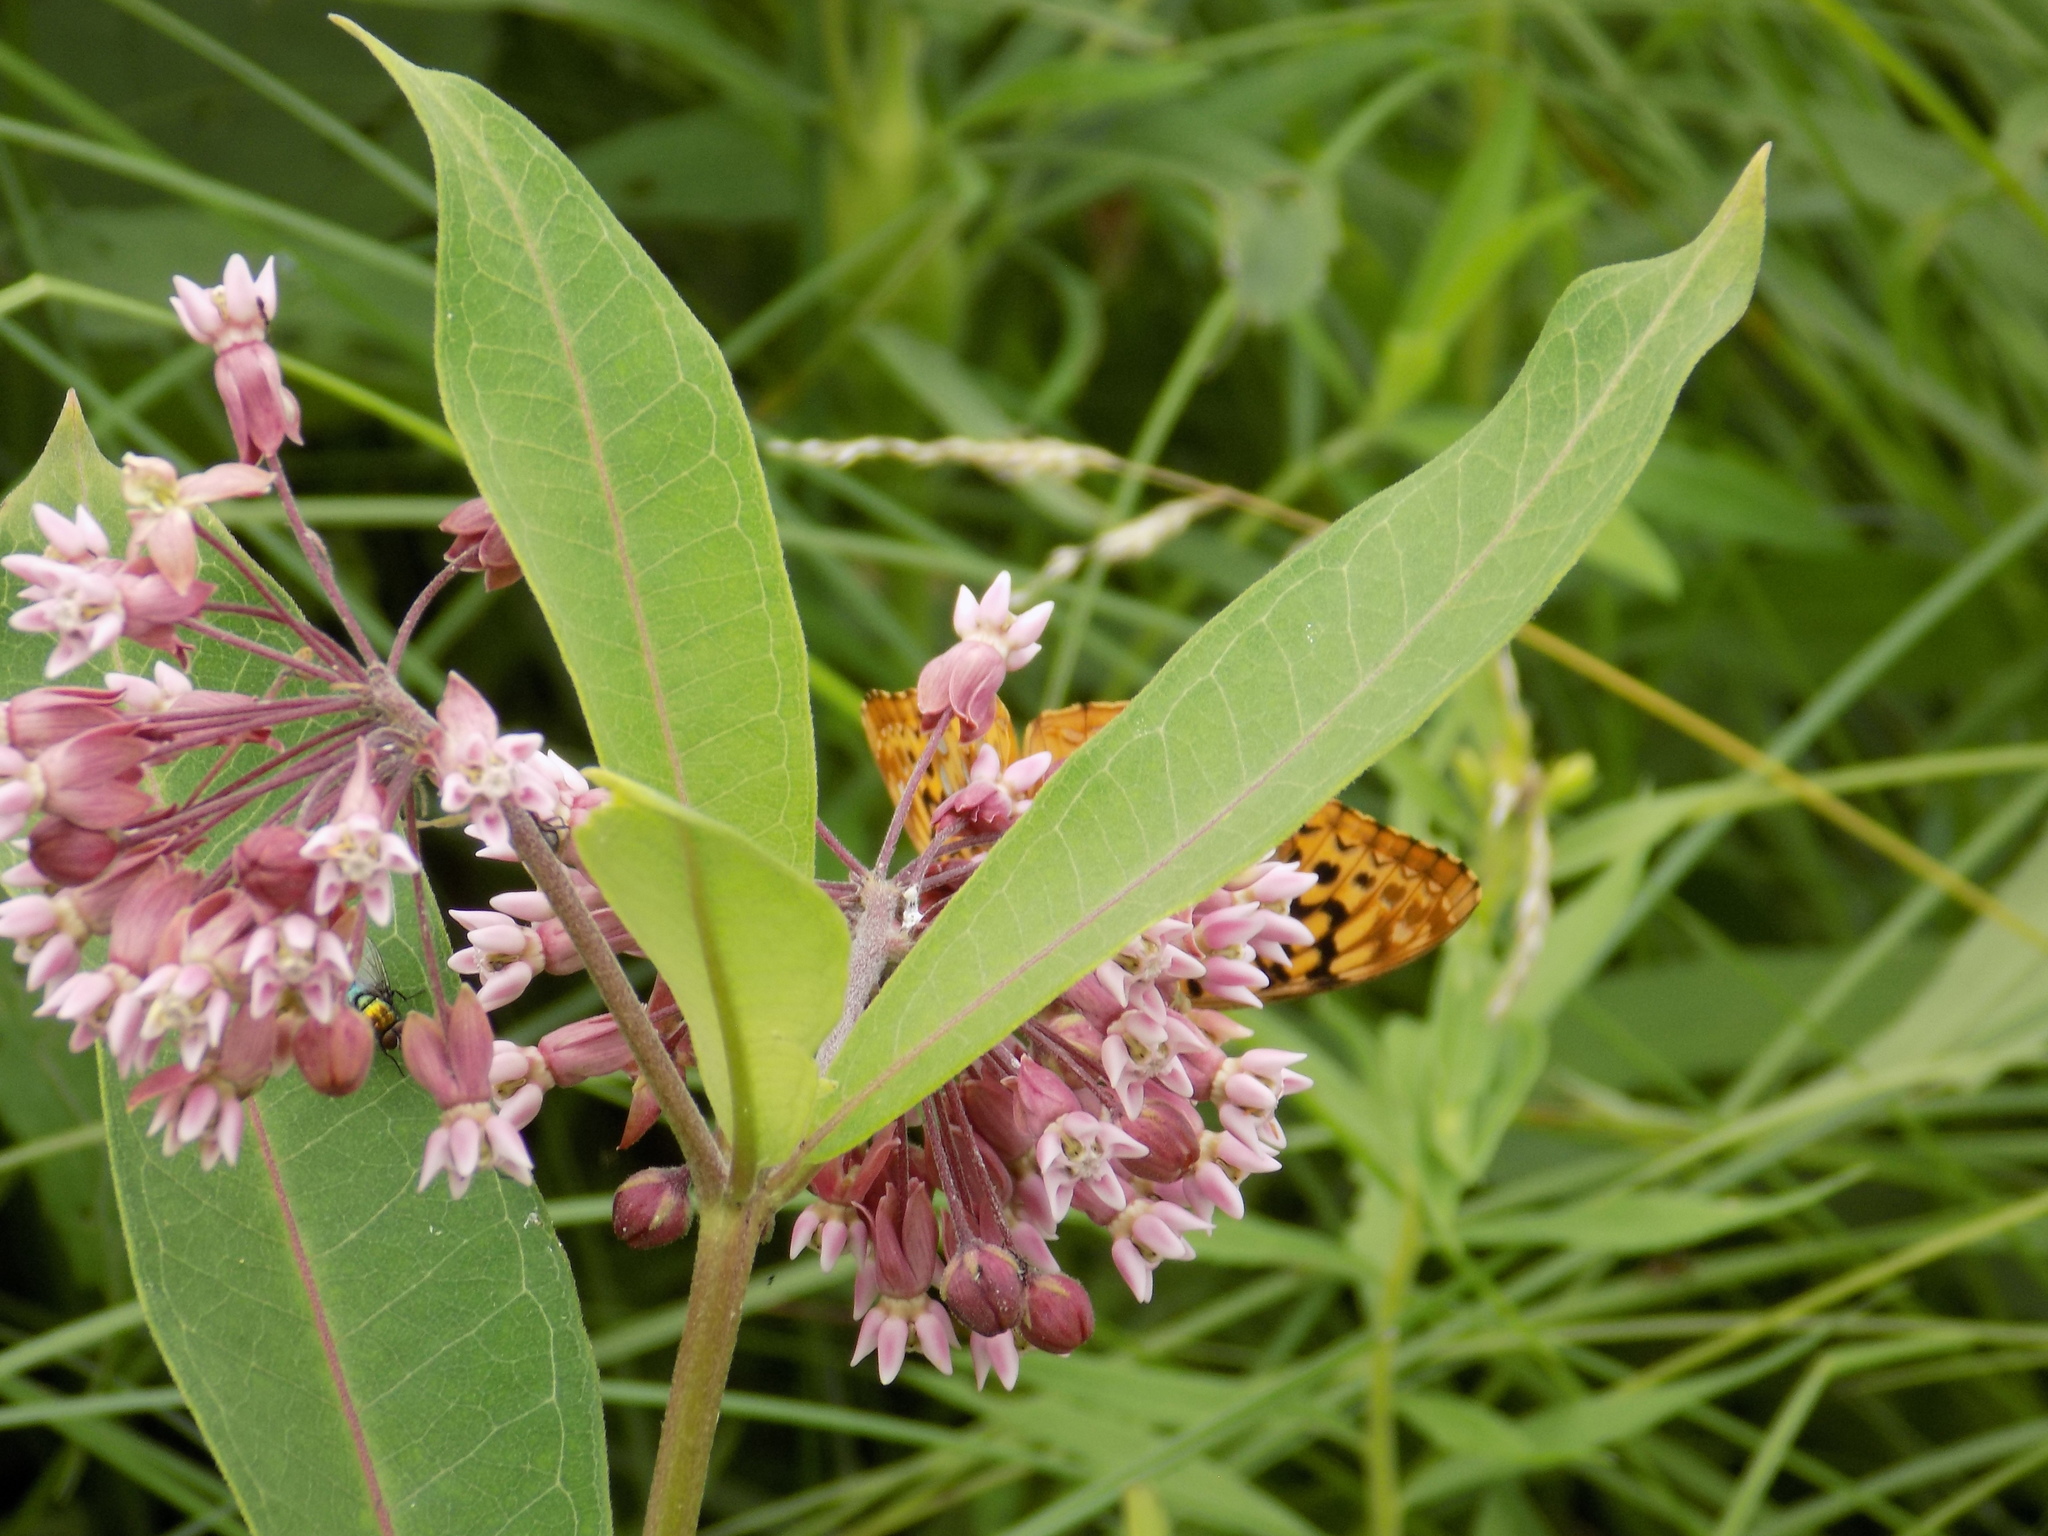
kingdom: Plantae
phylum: Tracheophyta
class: Magnoliopsida
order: Gentianales
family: Apocynaceae
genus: Asclepias
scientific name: Asclepias syriaca
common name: Common milkweed
